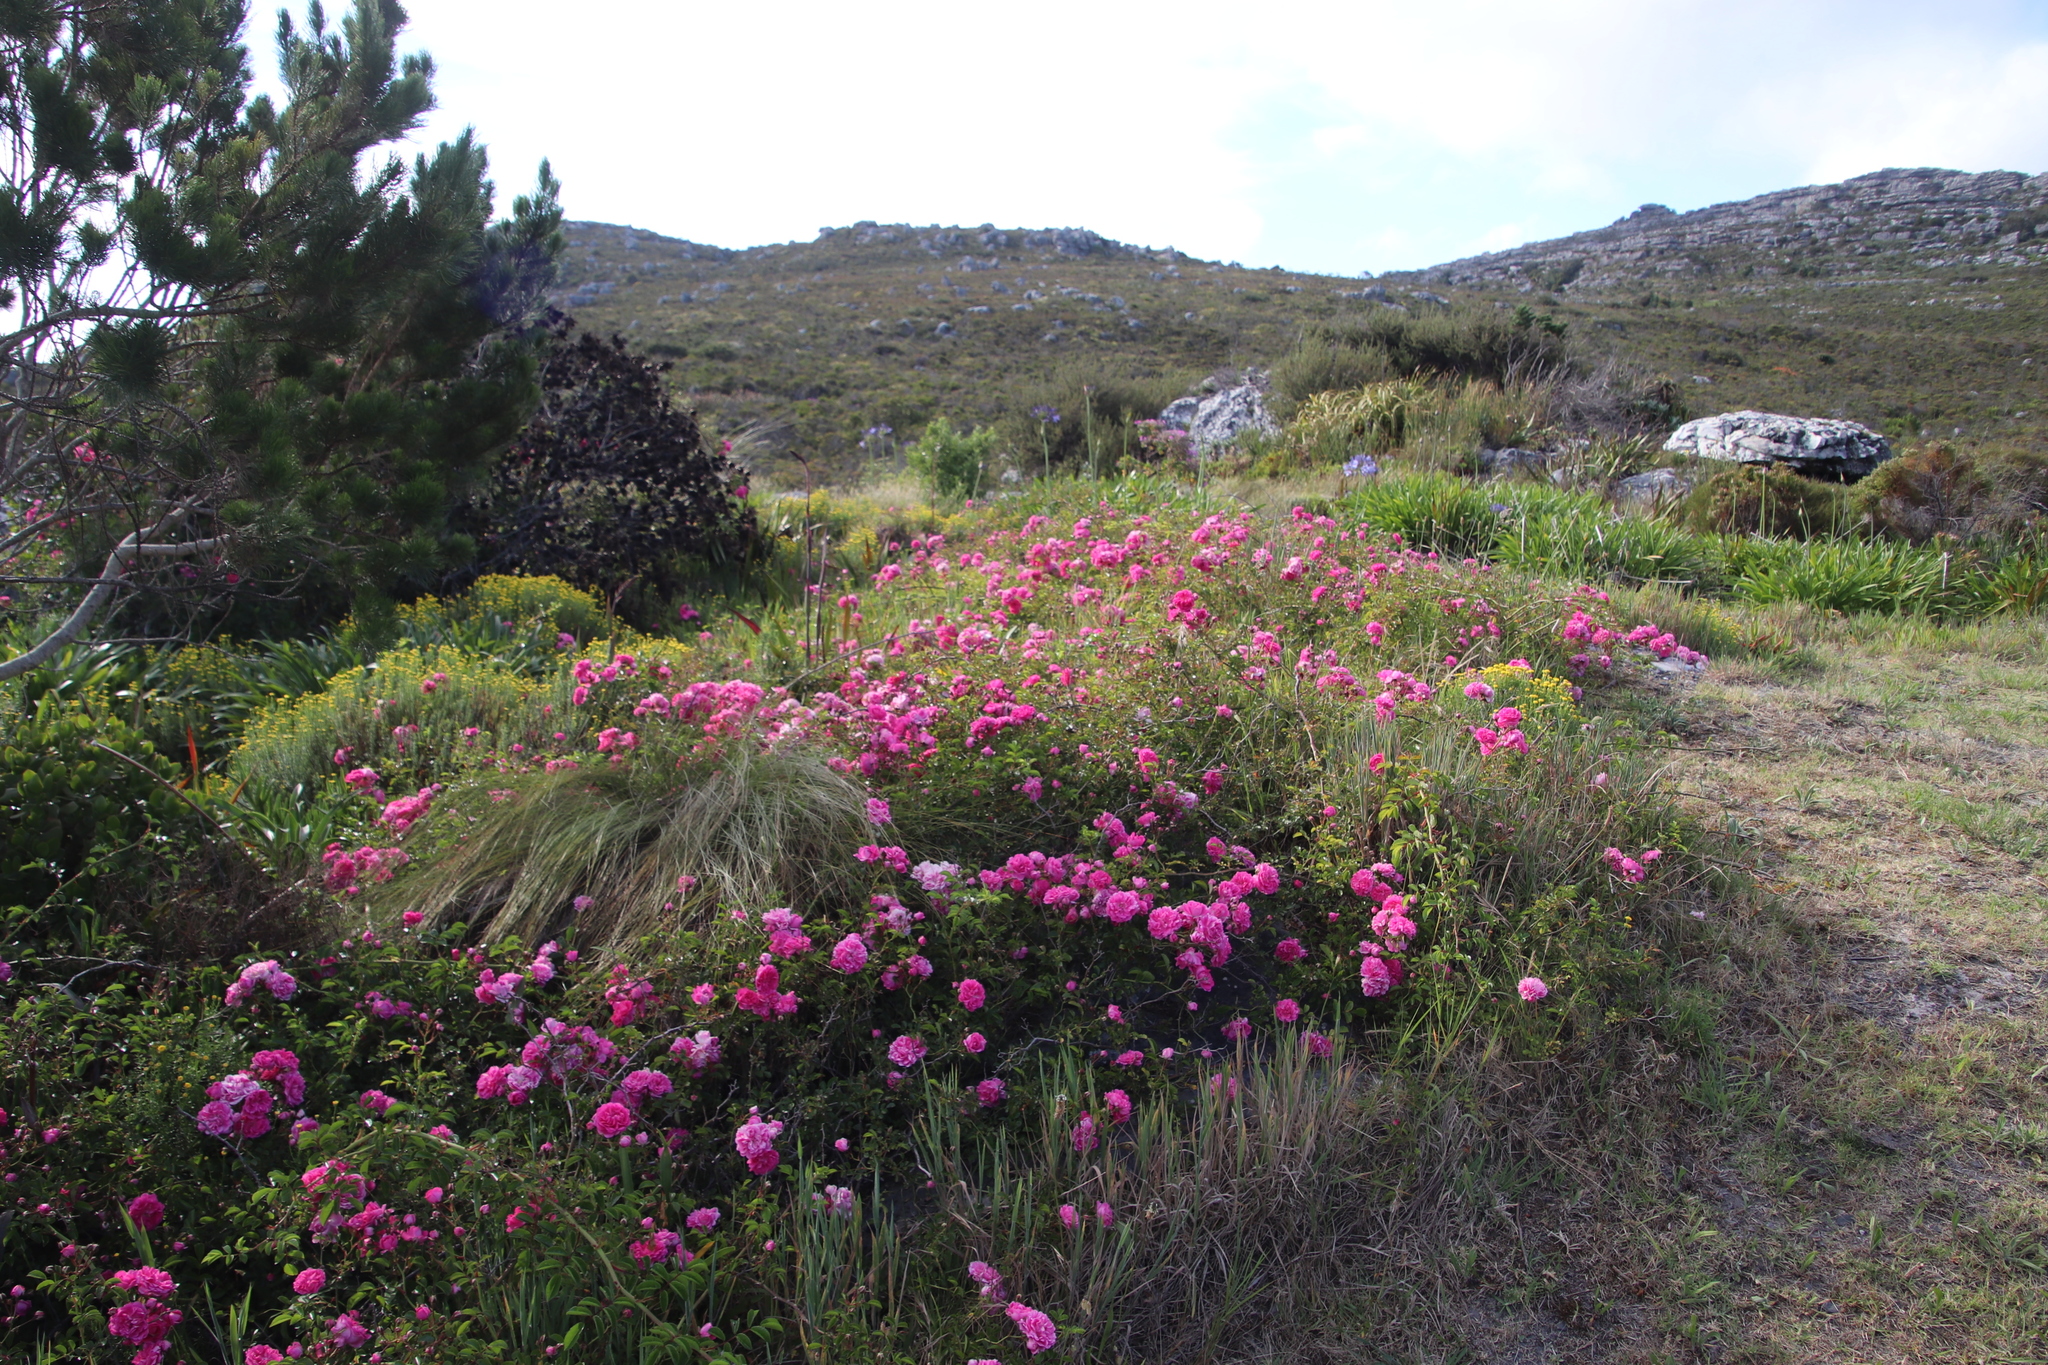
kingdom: Plantae
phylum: Tracheophyta
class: Magnoliopsida
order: Rosales
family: Rosaceae
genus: Rosa
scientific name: Rosa multiflora
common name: Multiflora rose
